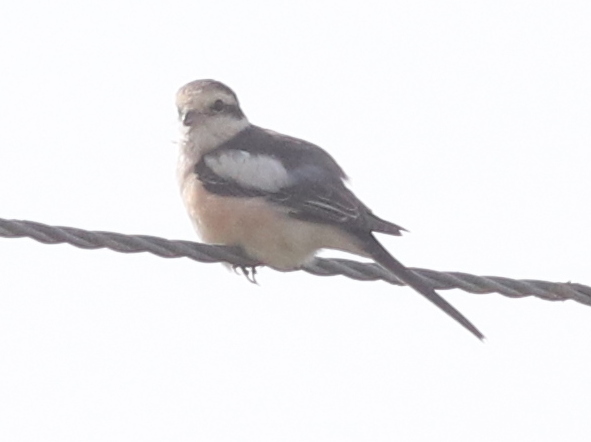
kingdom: Animalia
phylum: Chordata
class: Aves
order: Passeriformes
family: Laniidae
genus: Lanius
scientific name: Lanius nubicus
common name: Masked shrike
